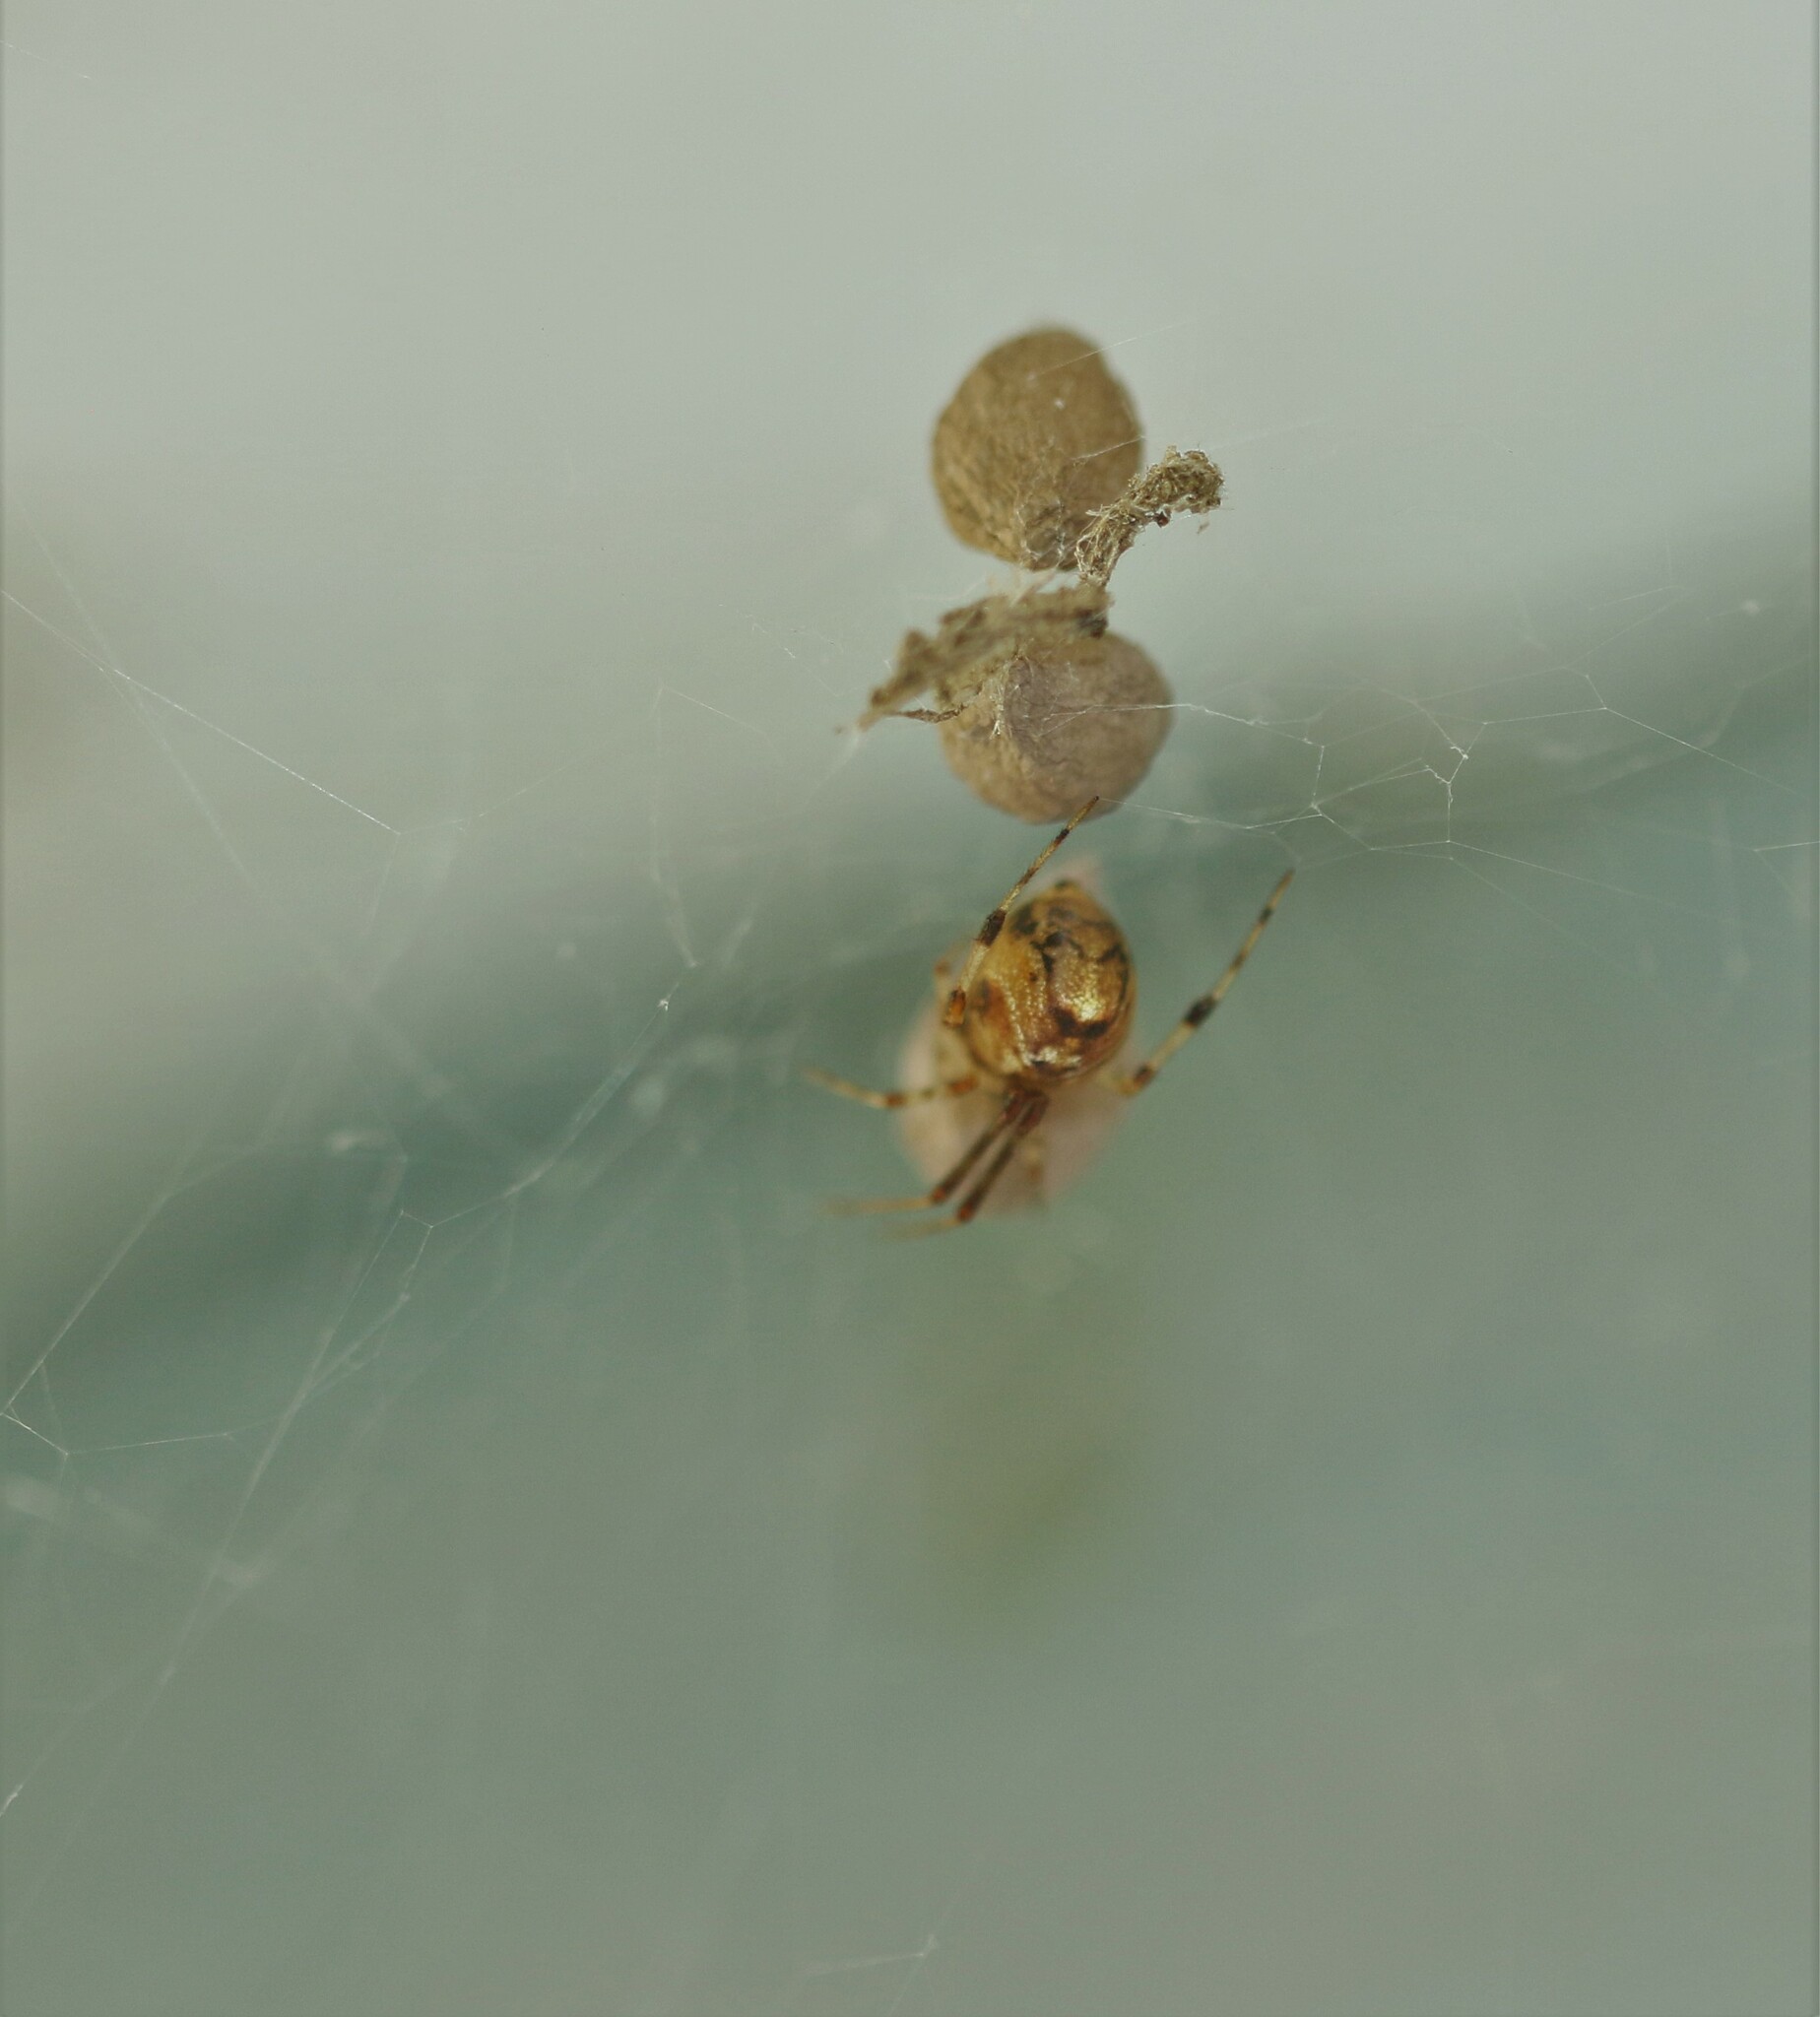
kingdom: Animalia
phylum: Arthropoda
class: Arachnida
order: Araneae
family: Theridiidae
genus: Parasteatoda
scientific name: Parasteatoda tepidariorum
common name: Common house spider
